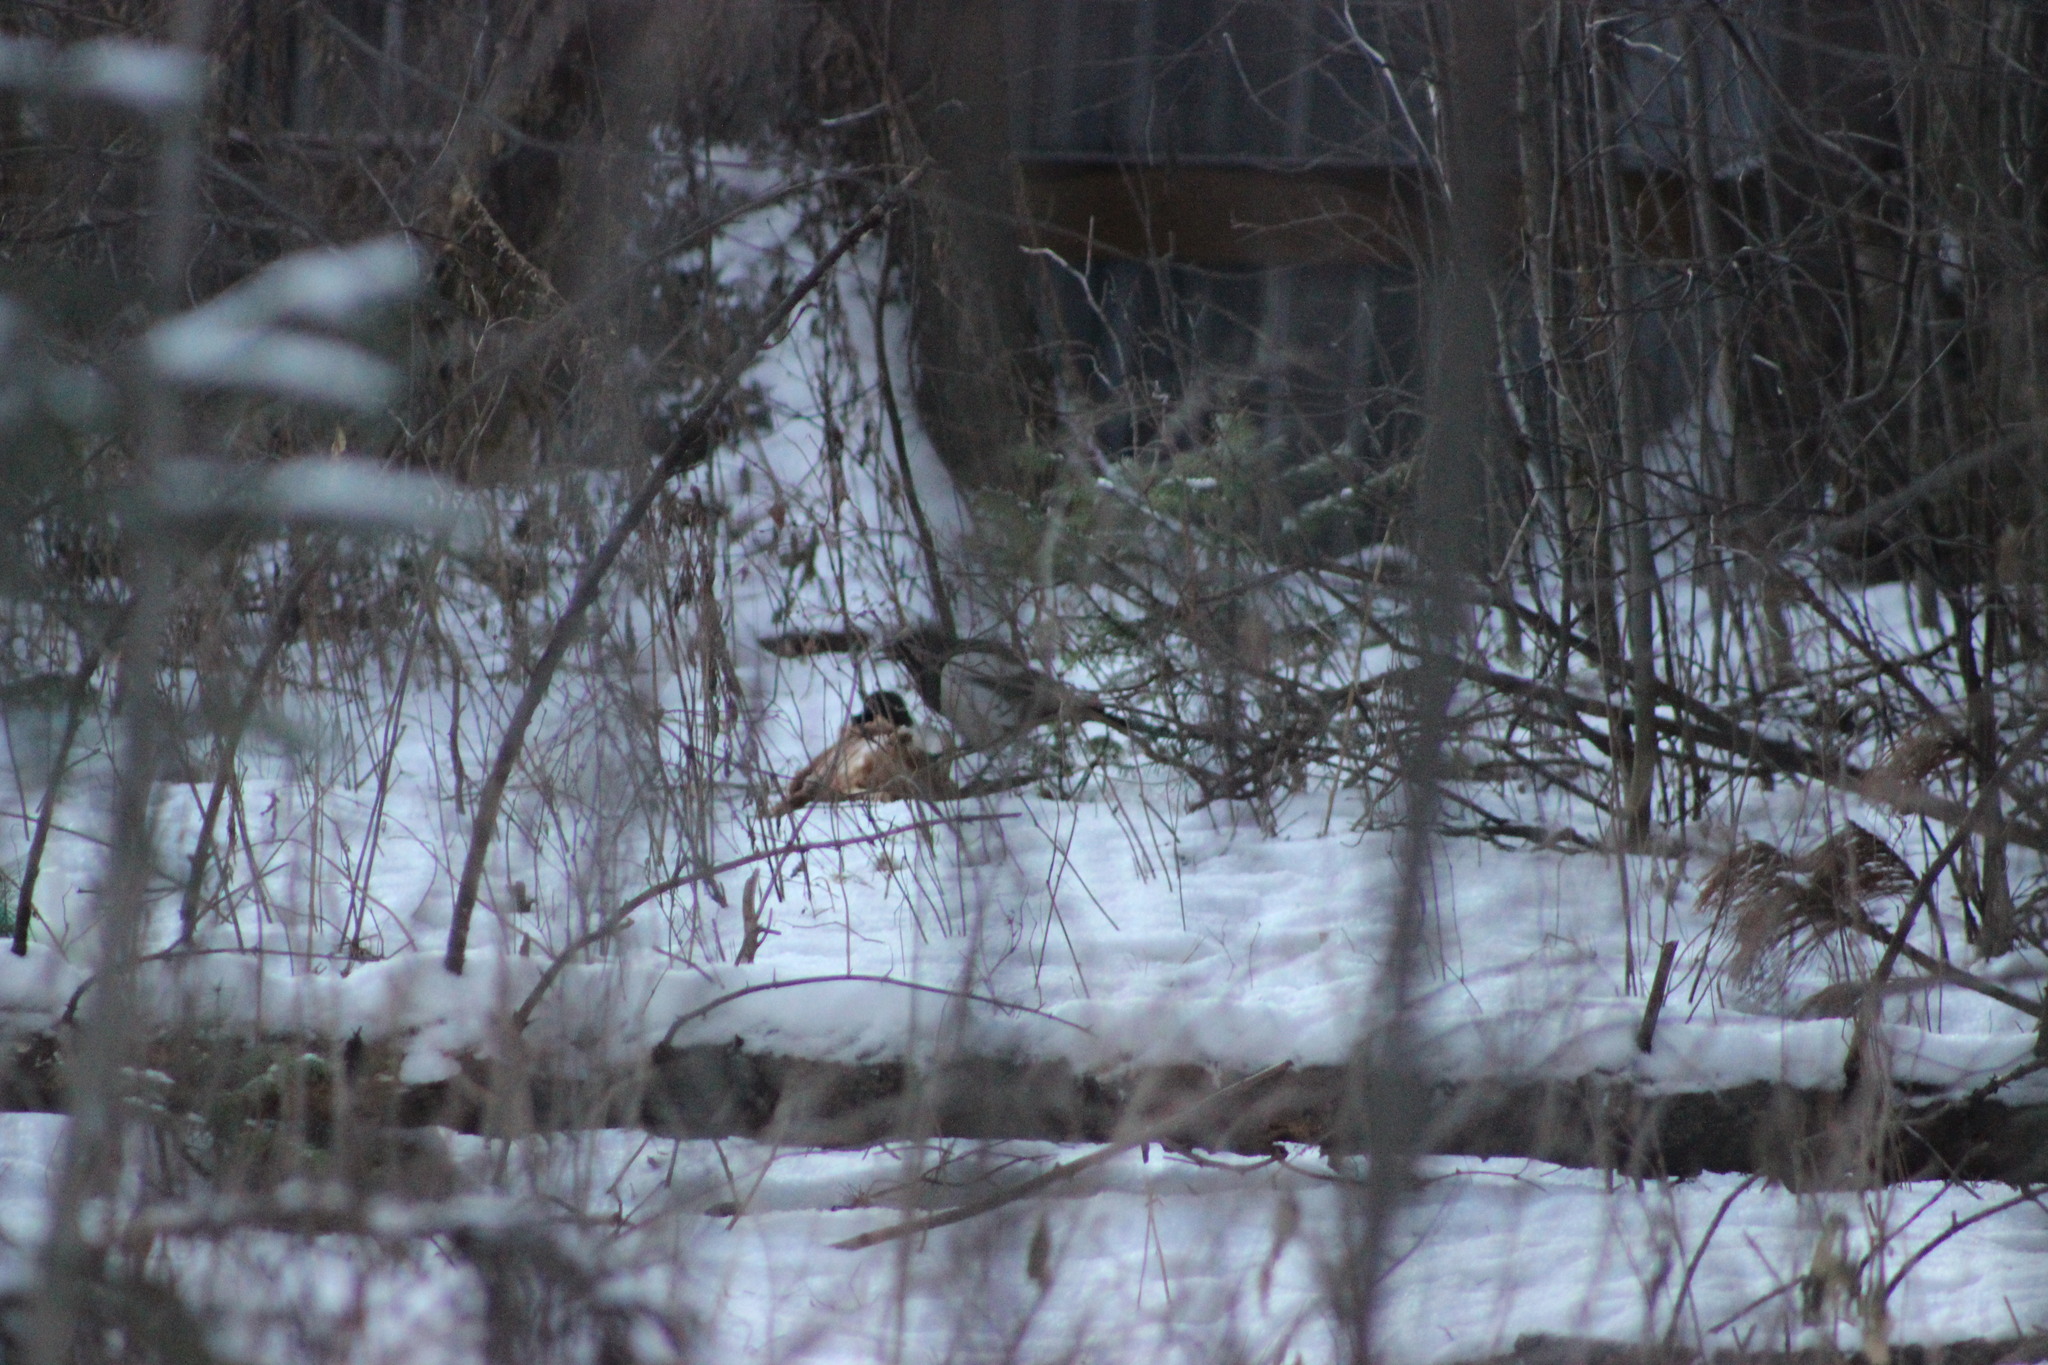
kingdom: Animalia
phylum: Chordata
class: Aves
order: Passeriformes
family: Corvidae
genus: Pica
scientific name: Pica pica
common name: Eurasian magpie
